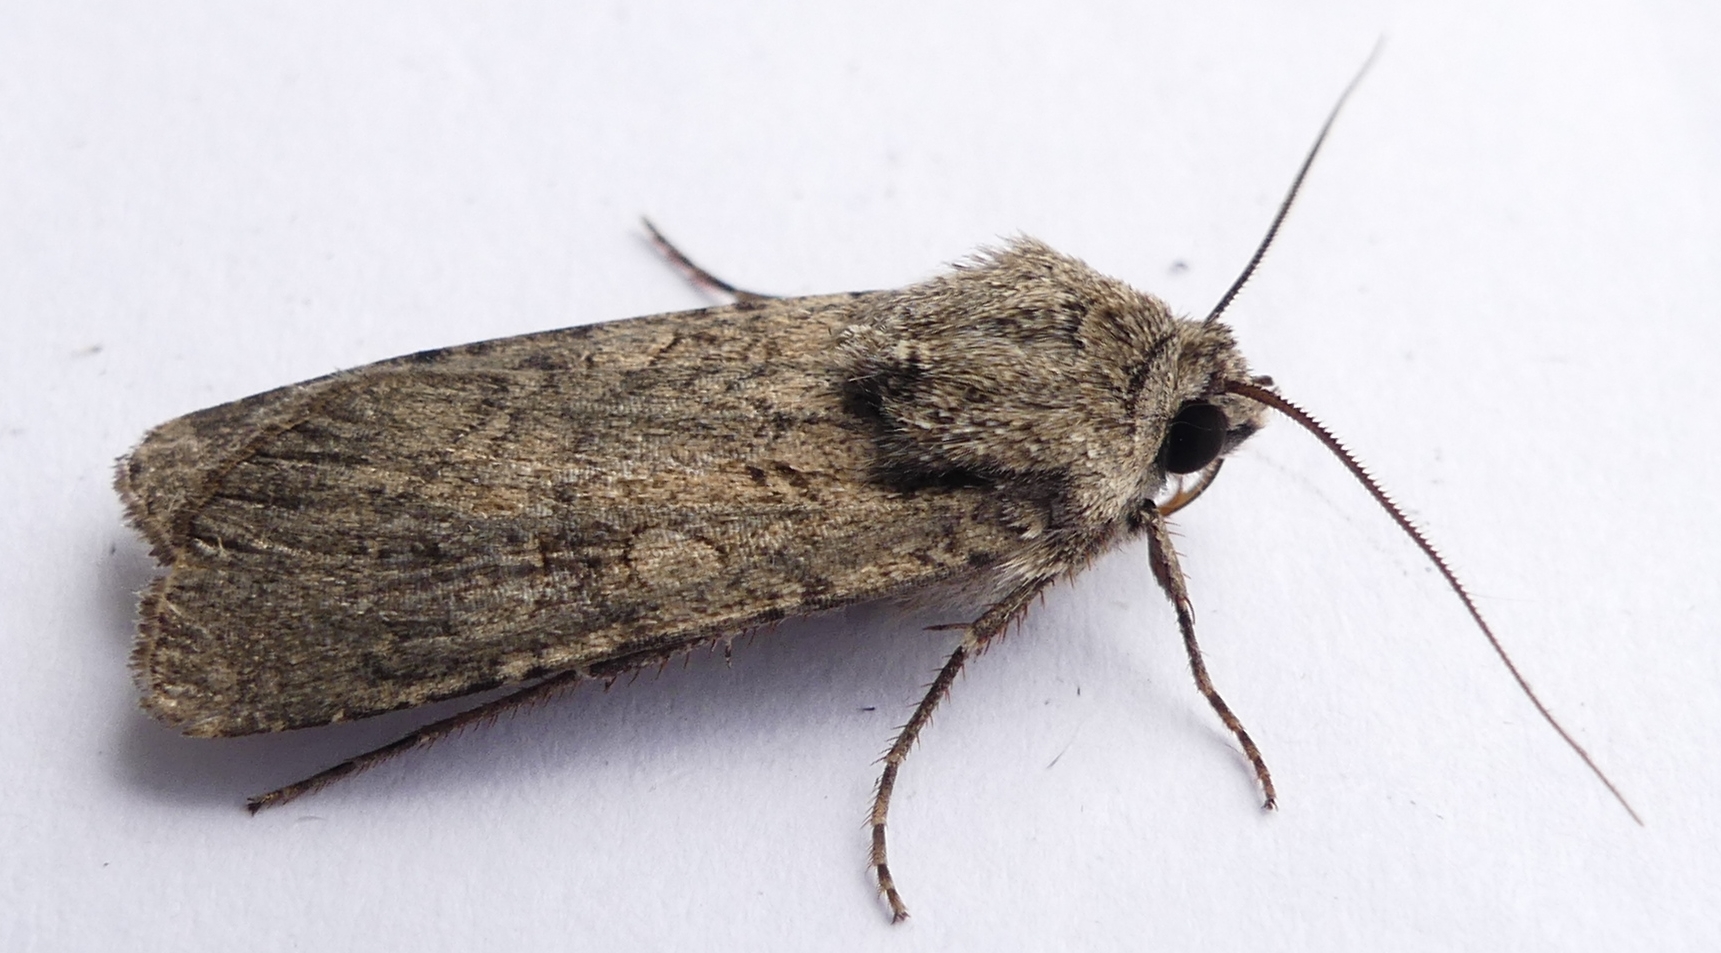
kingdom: Animalia
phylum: Arthropoda
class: Insecta
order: Lepidoptera
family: Noctuidae
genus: Euxoa
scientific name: Euxoa messoria
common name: Darksided cutworm
